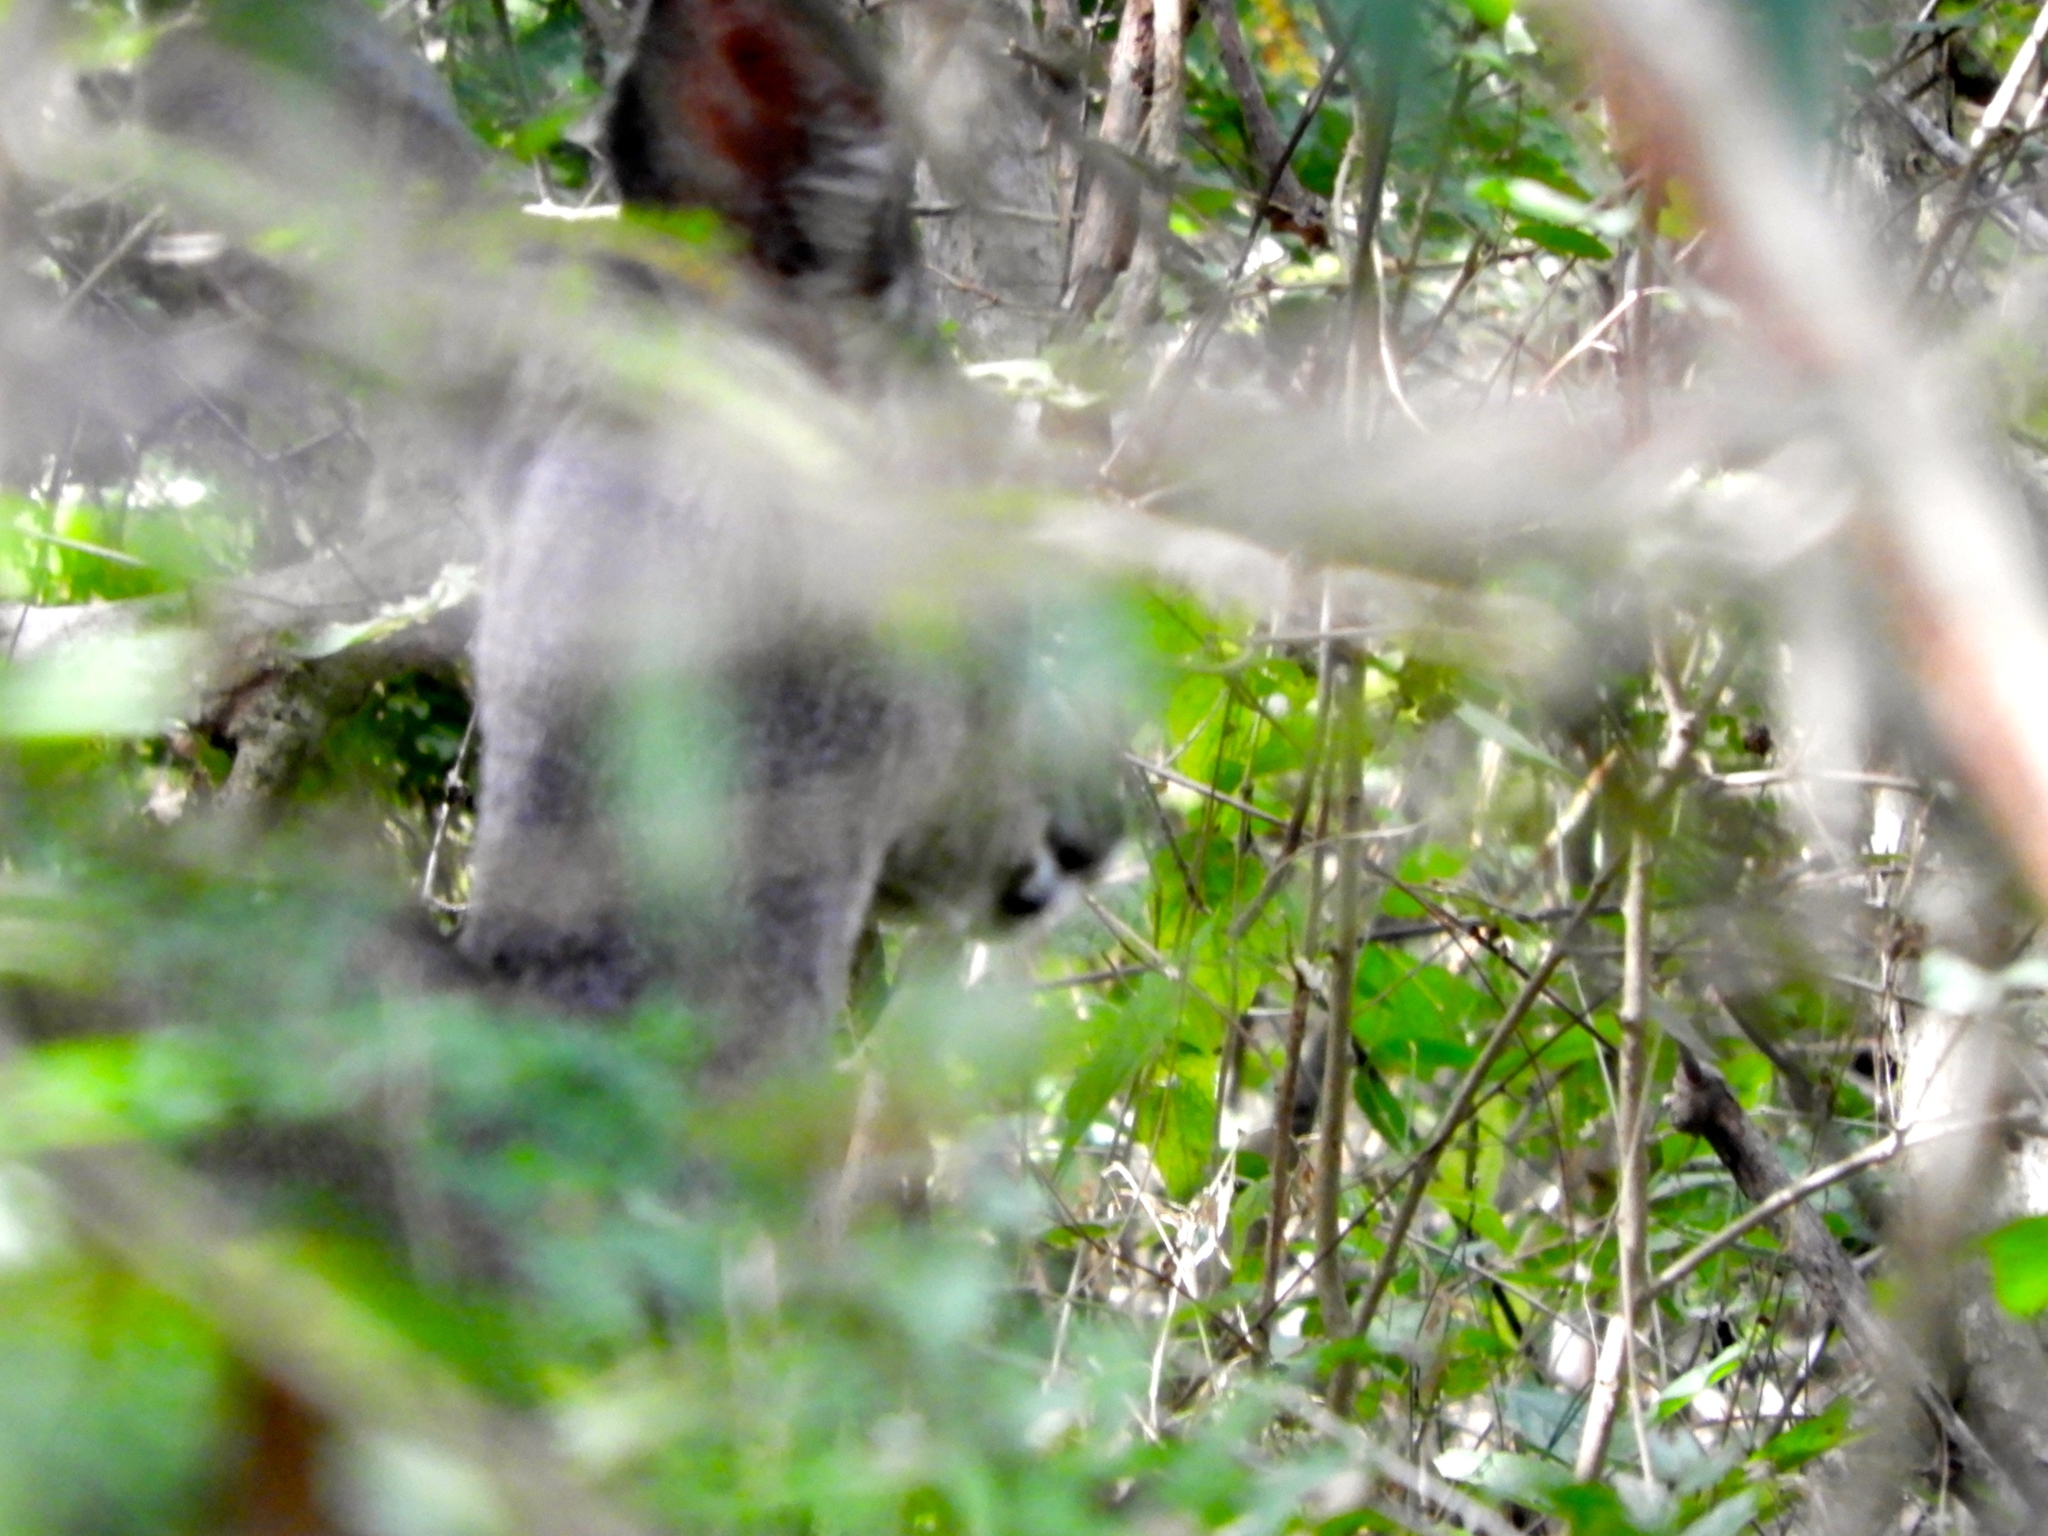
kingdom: Animalia
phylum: Chordata
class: Mammalia
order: Artiodactyla
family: Cervidae
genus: Odocoileus
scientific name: Odocoileus virginianus
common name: White-tailed deer
